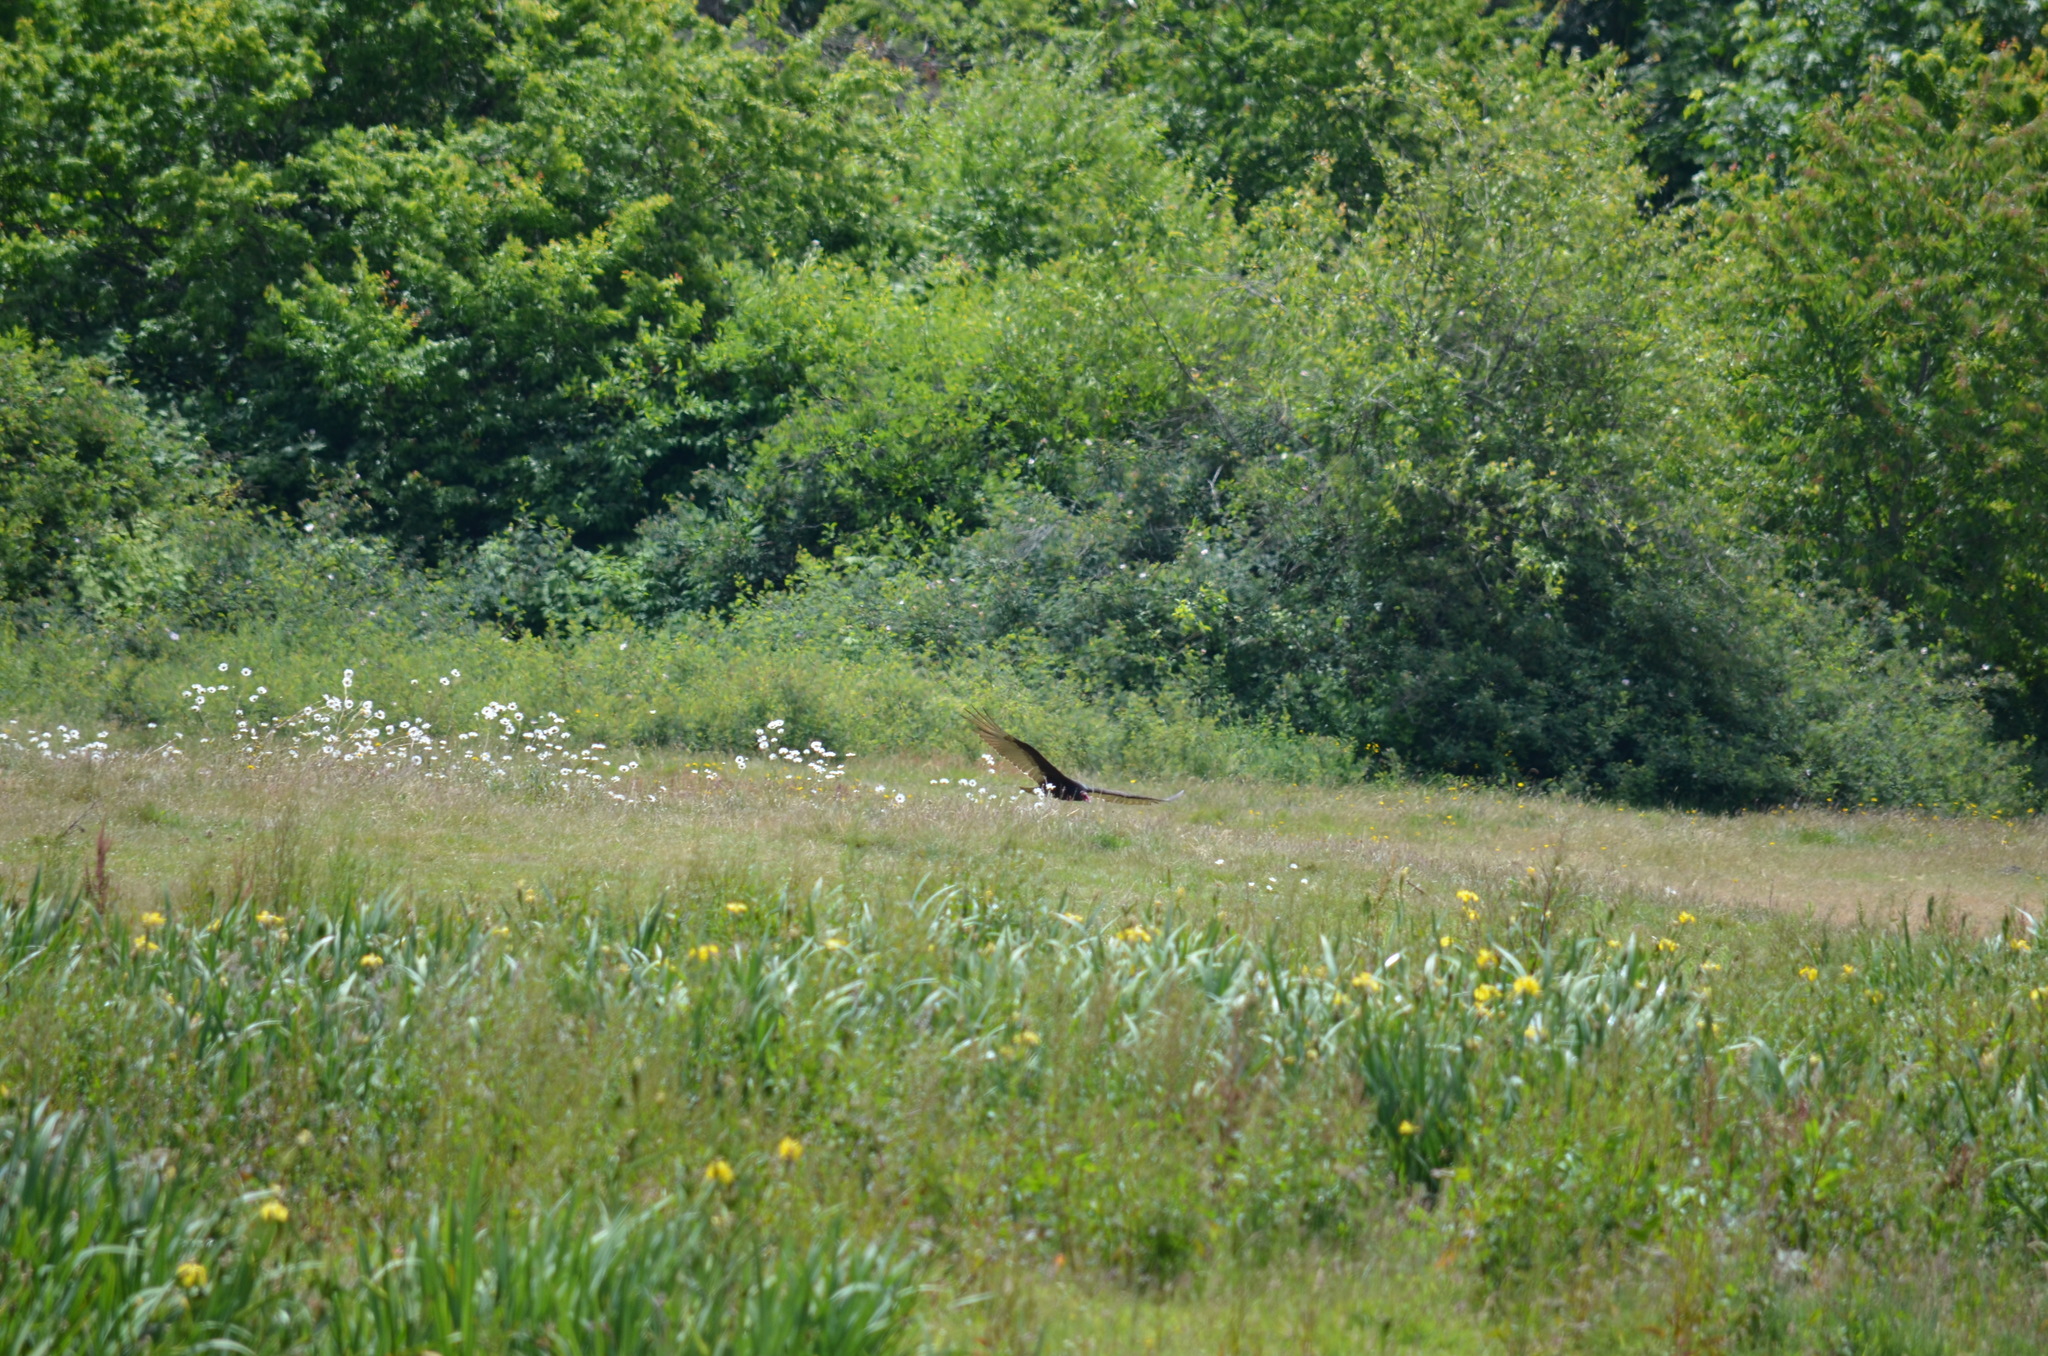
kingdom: Animalia
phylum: Chordata
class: Aves
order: Accipitriformes
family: Cathartidae
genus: Cathartes
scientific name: Cathartes aura
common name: Turkey vulture
